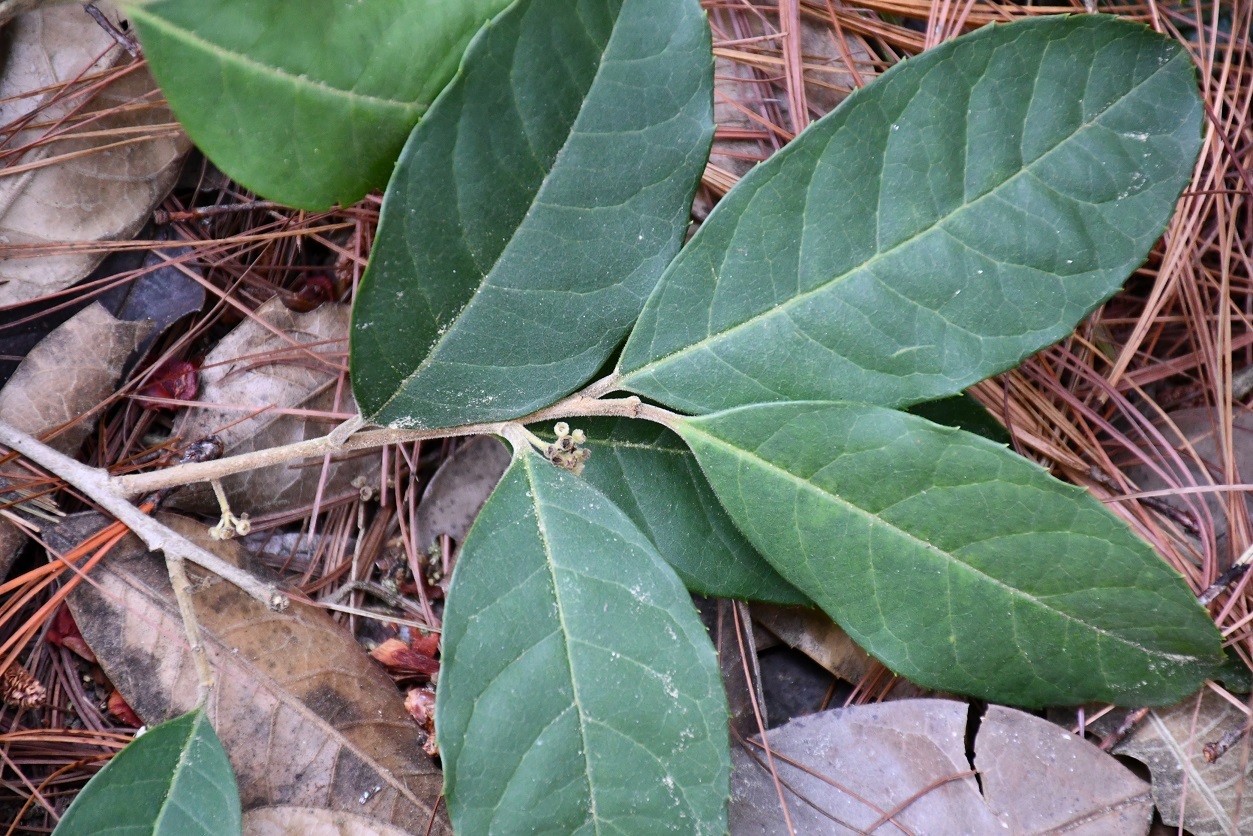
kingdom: Plantae
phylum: Tracheophyta
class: Magnoliopsida
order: Aquifoliales
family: Aquifoliaceae
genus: Ilex
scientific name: Ilex brandegeeana
